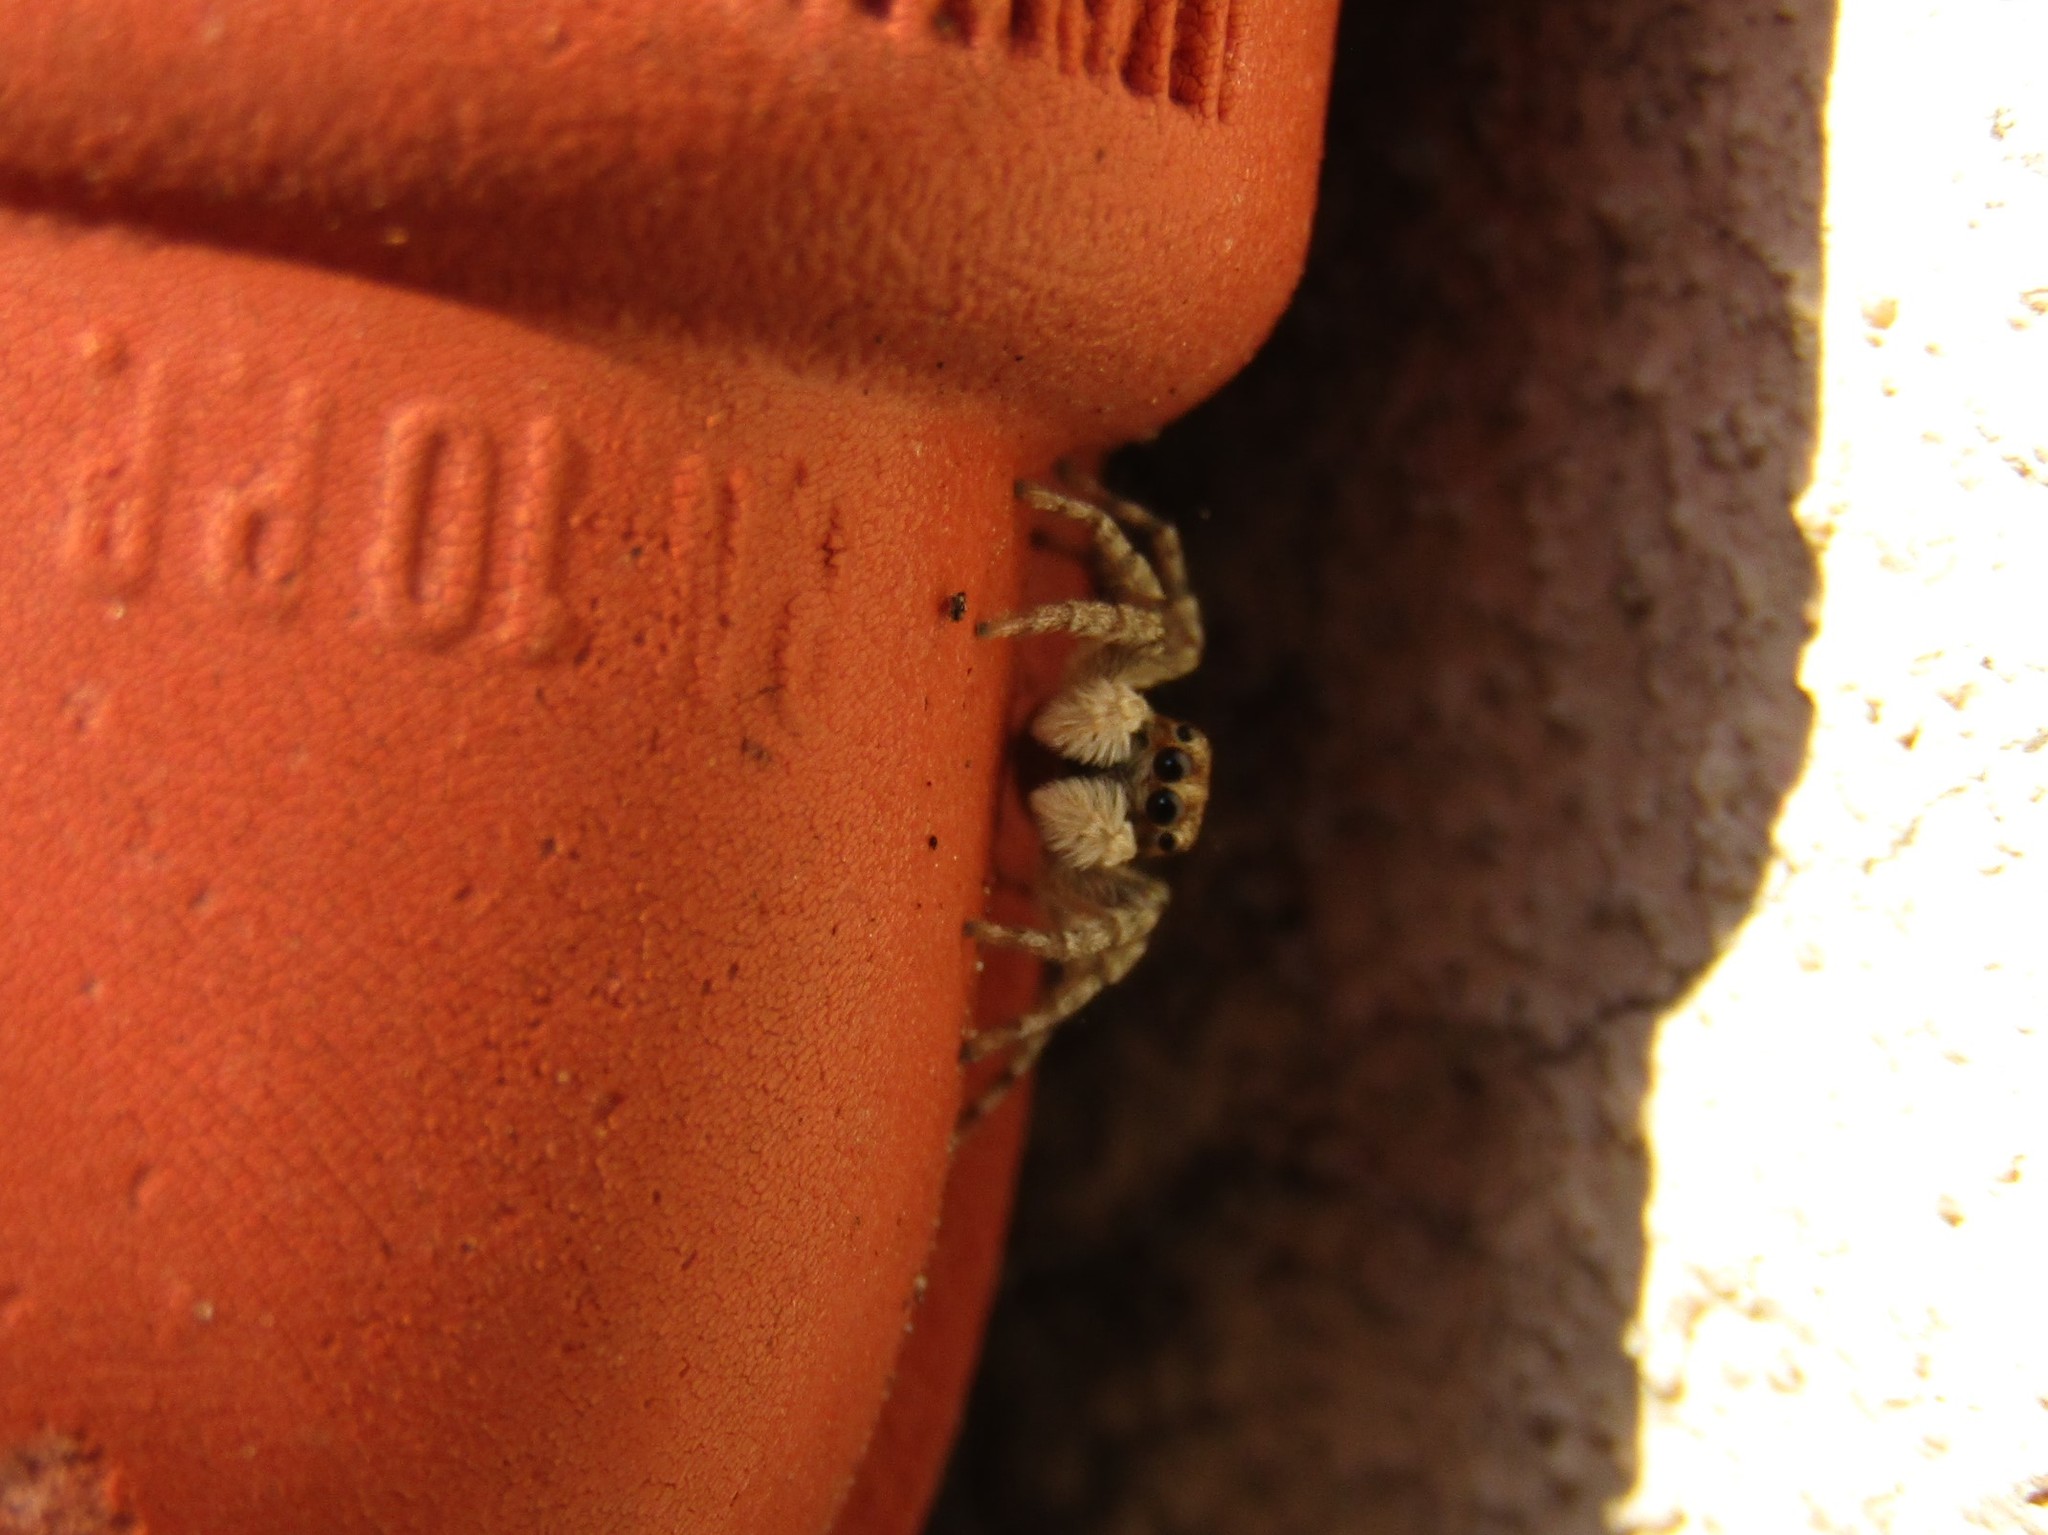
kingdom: Animalia
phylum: Arthropoda
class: Arachnida
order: Araneae
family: Salticidae
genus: Menemerus
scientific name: Menemerus semilimbatus
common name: Jumping spider
